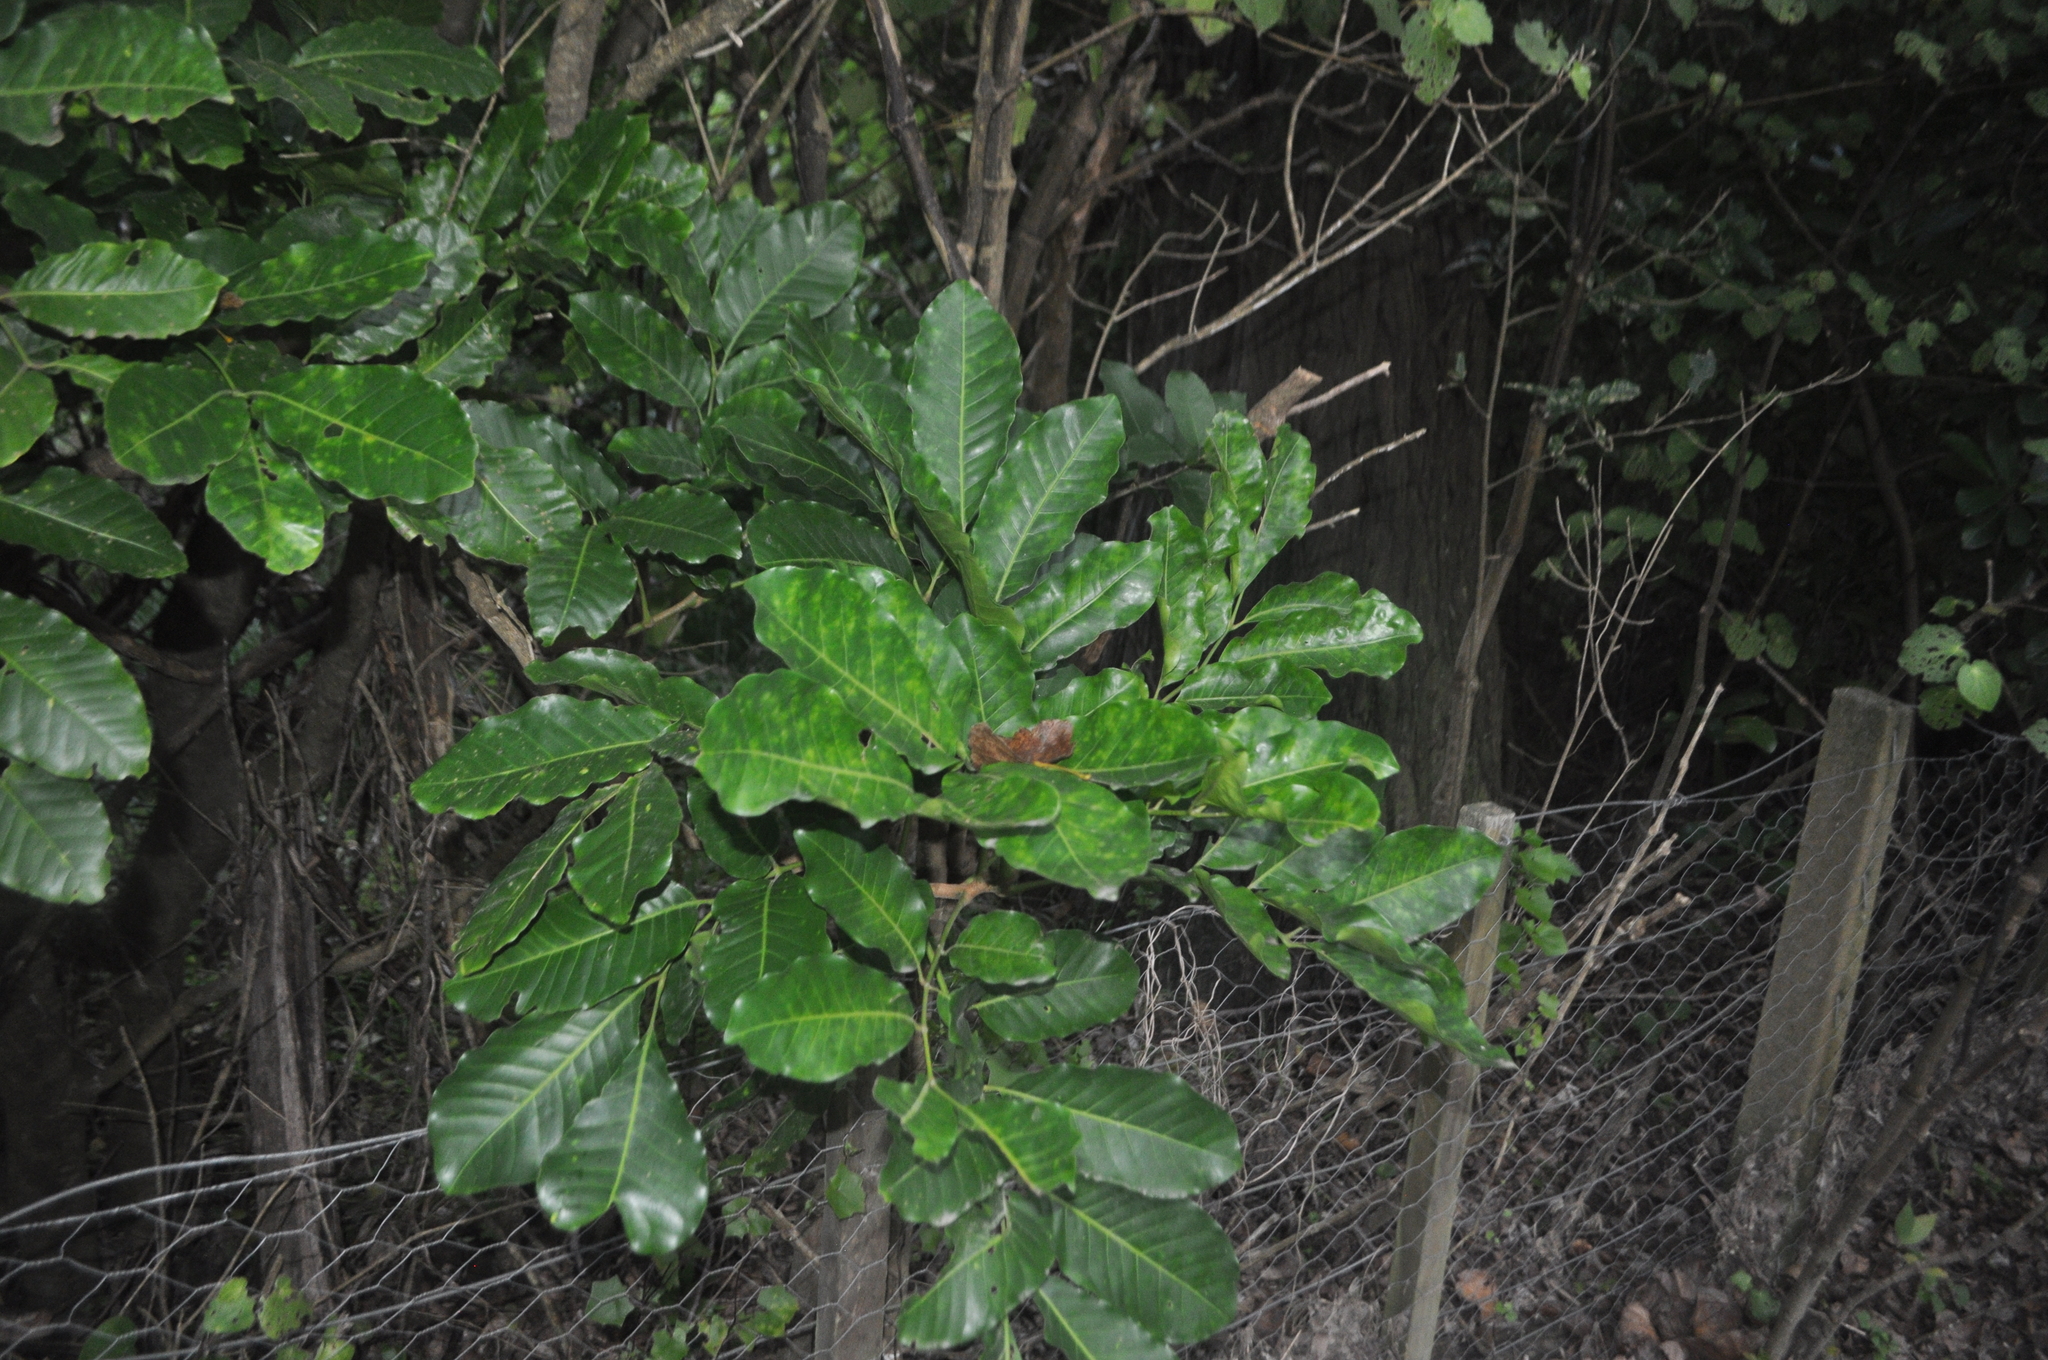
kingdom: Plantae
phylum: Tracheophyta
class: Magnoliopsida
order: Sapindales
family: Meliaceae
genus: Didymocheton
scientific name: Didymocheton spectabilis
